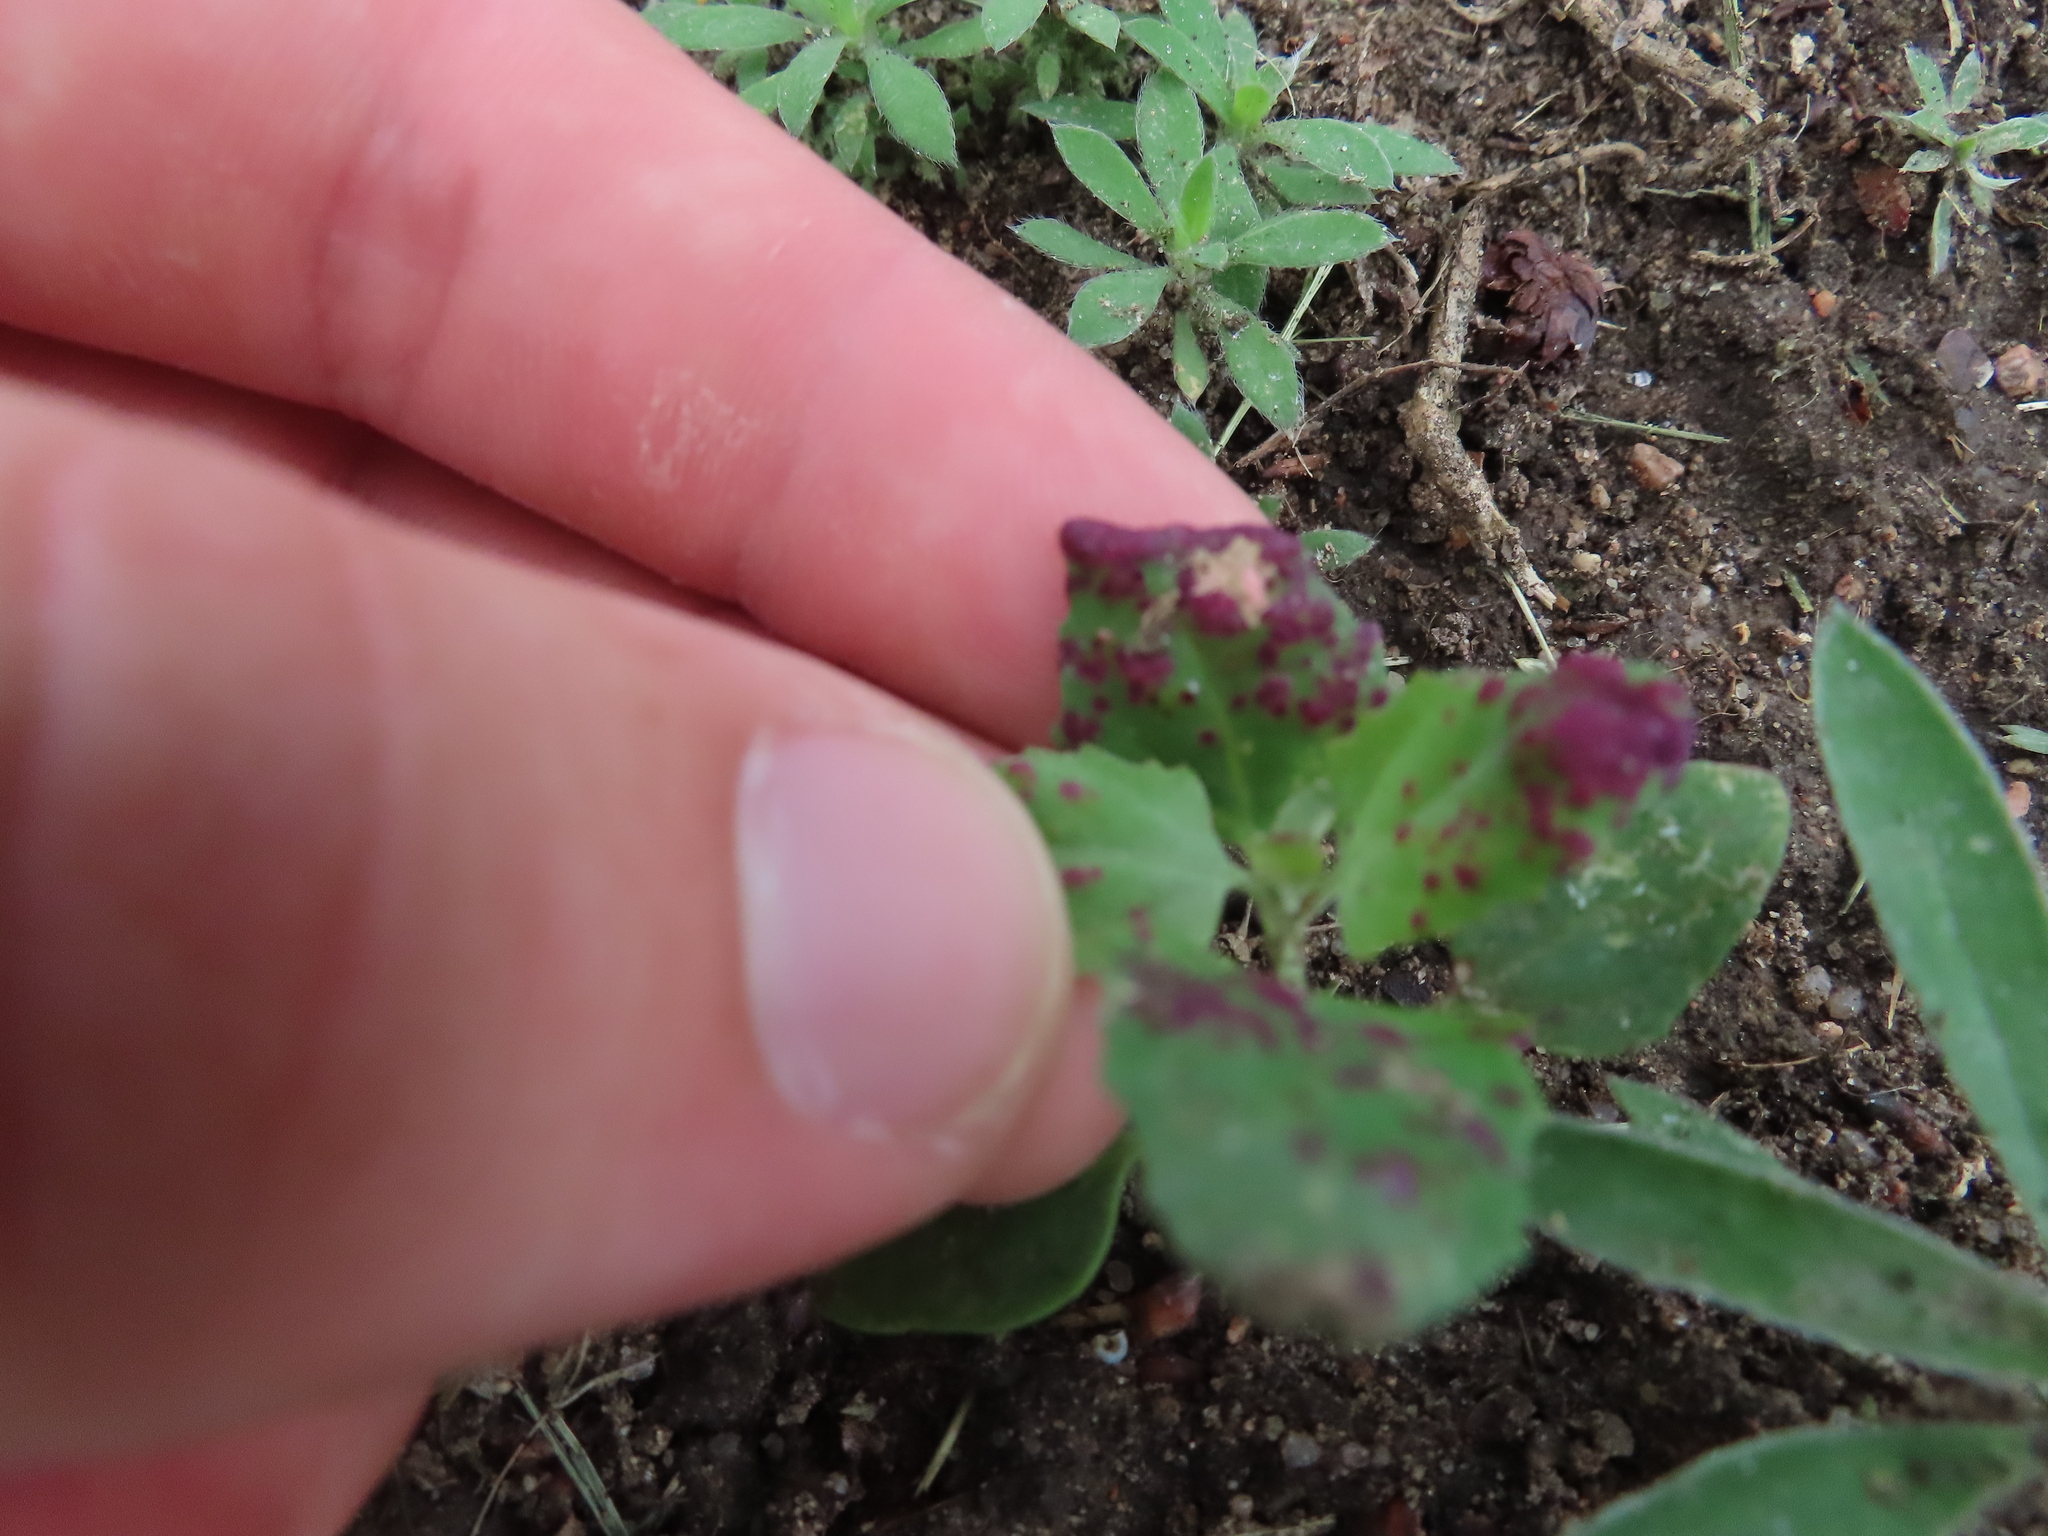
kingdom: Animalia
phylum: Arthropoda
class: Insecta
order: Hemiptera
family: Cicadellidae
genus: Norvellina
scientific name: Norvellina chenopodii
